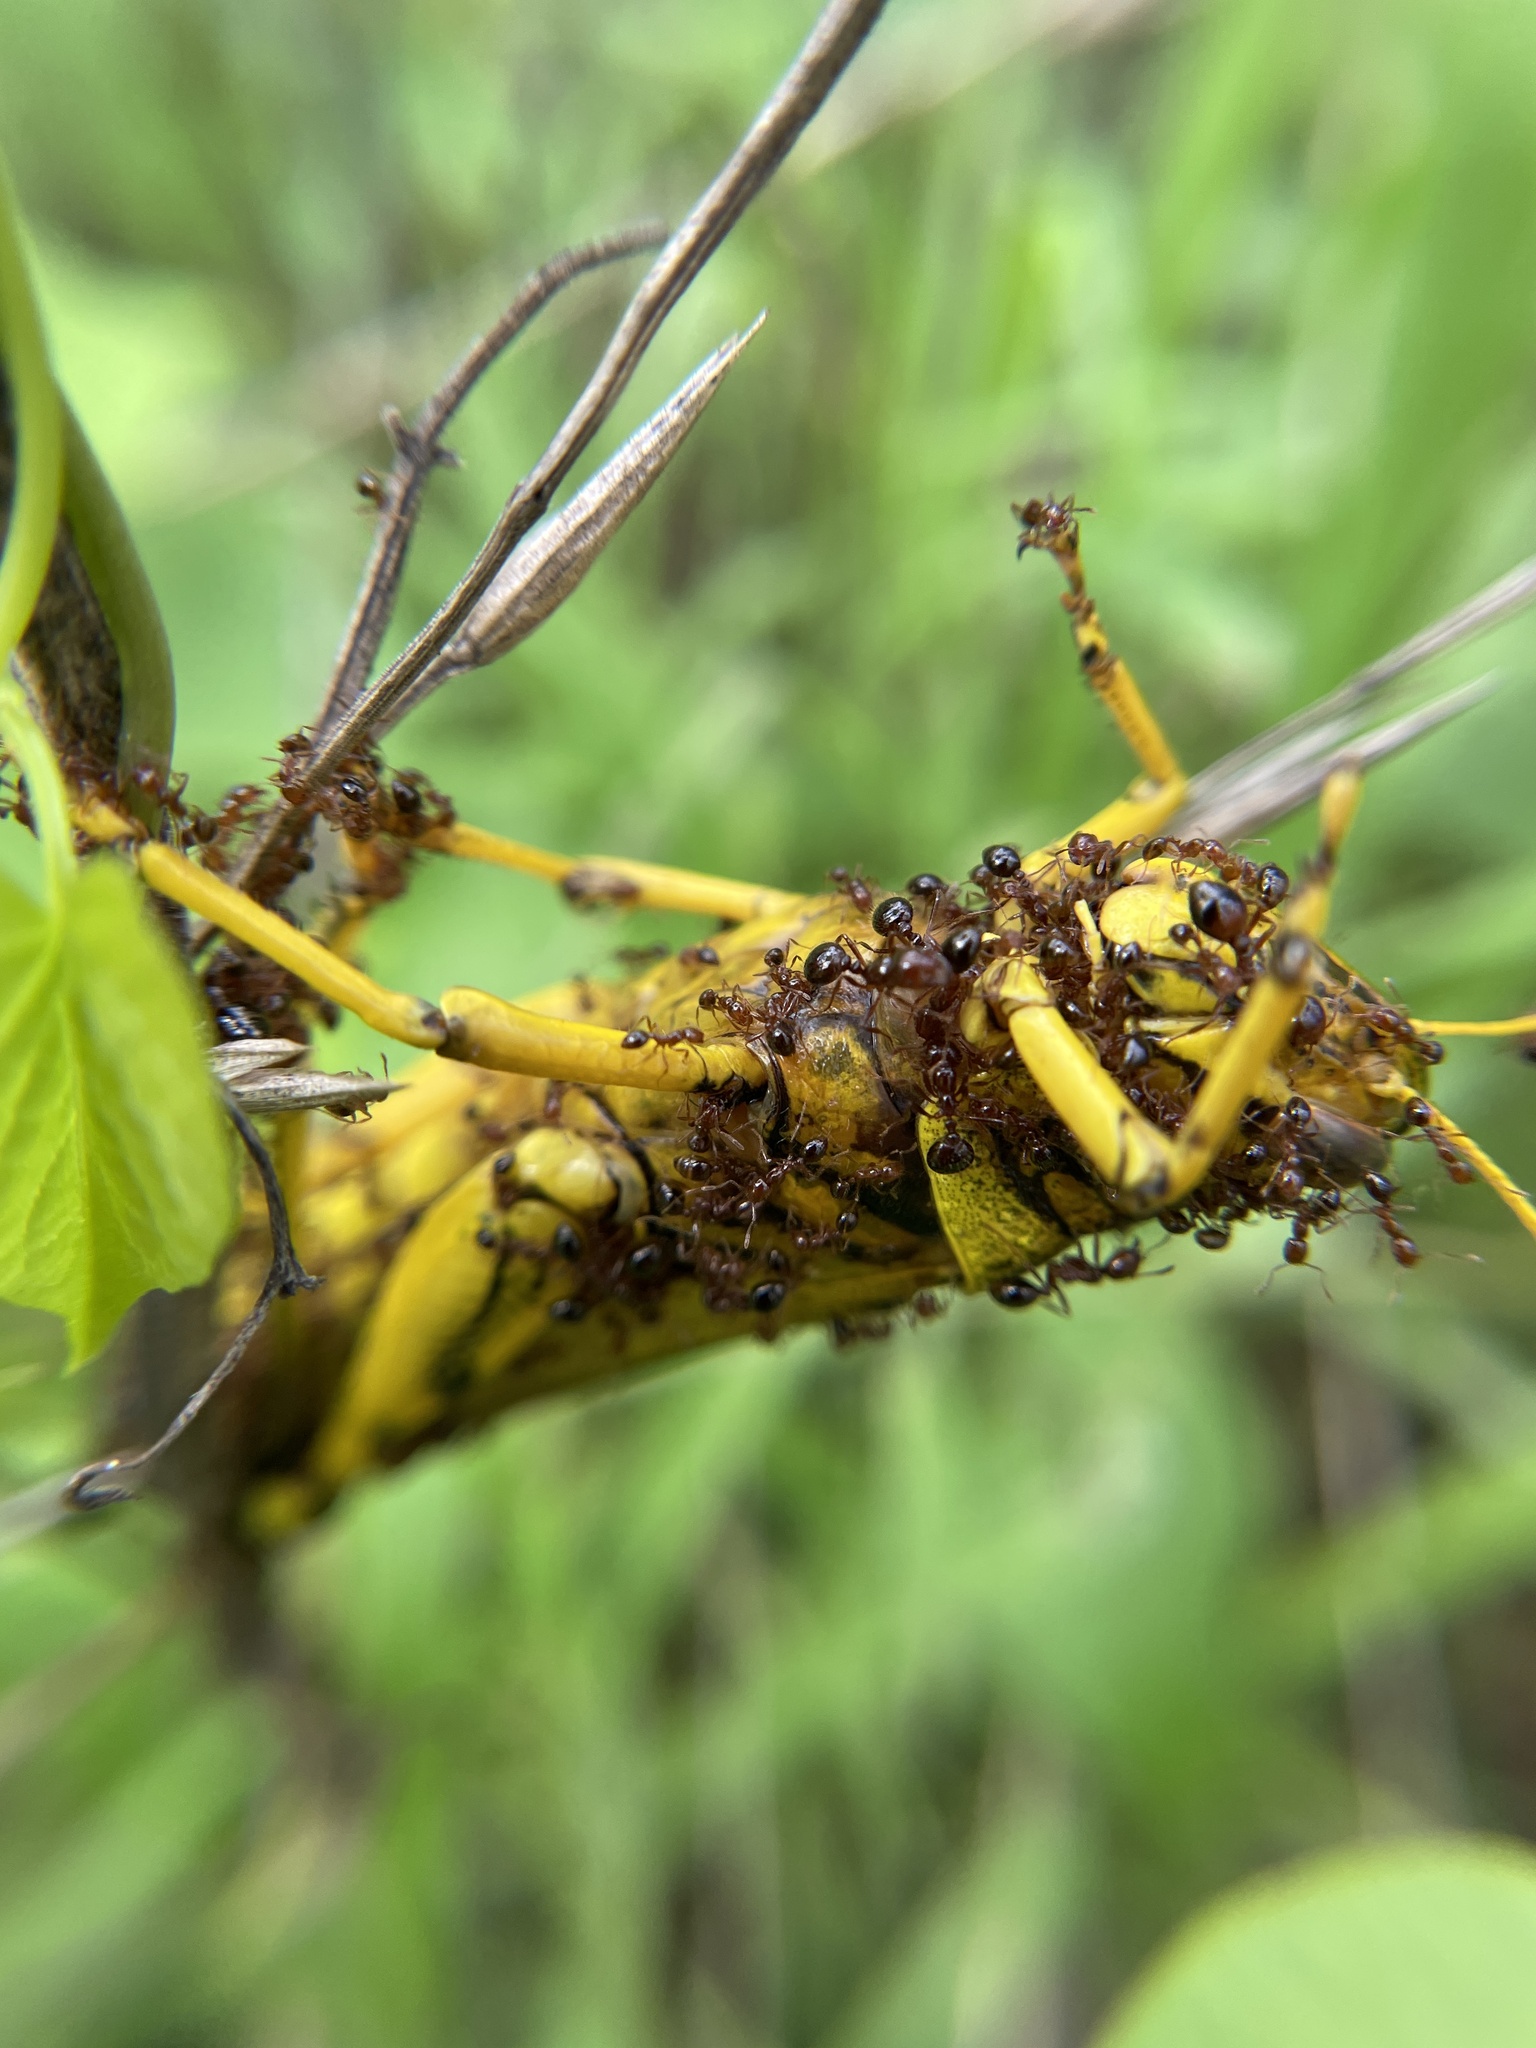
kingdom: Animalia
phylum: Arthropoda
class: Insecta
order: Hymenoptera
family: Formicidae
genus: Solenopsis
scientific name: Solenopsis invicta
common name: Red imported fire ant
